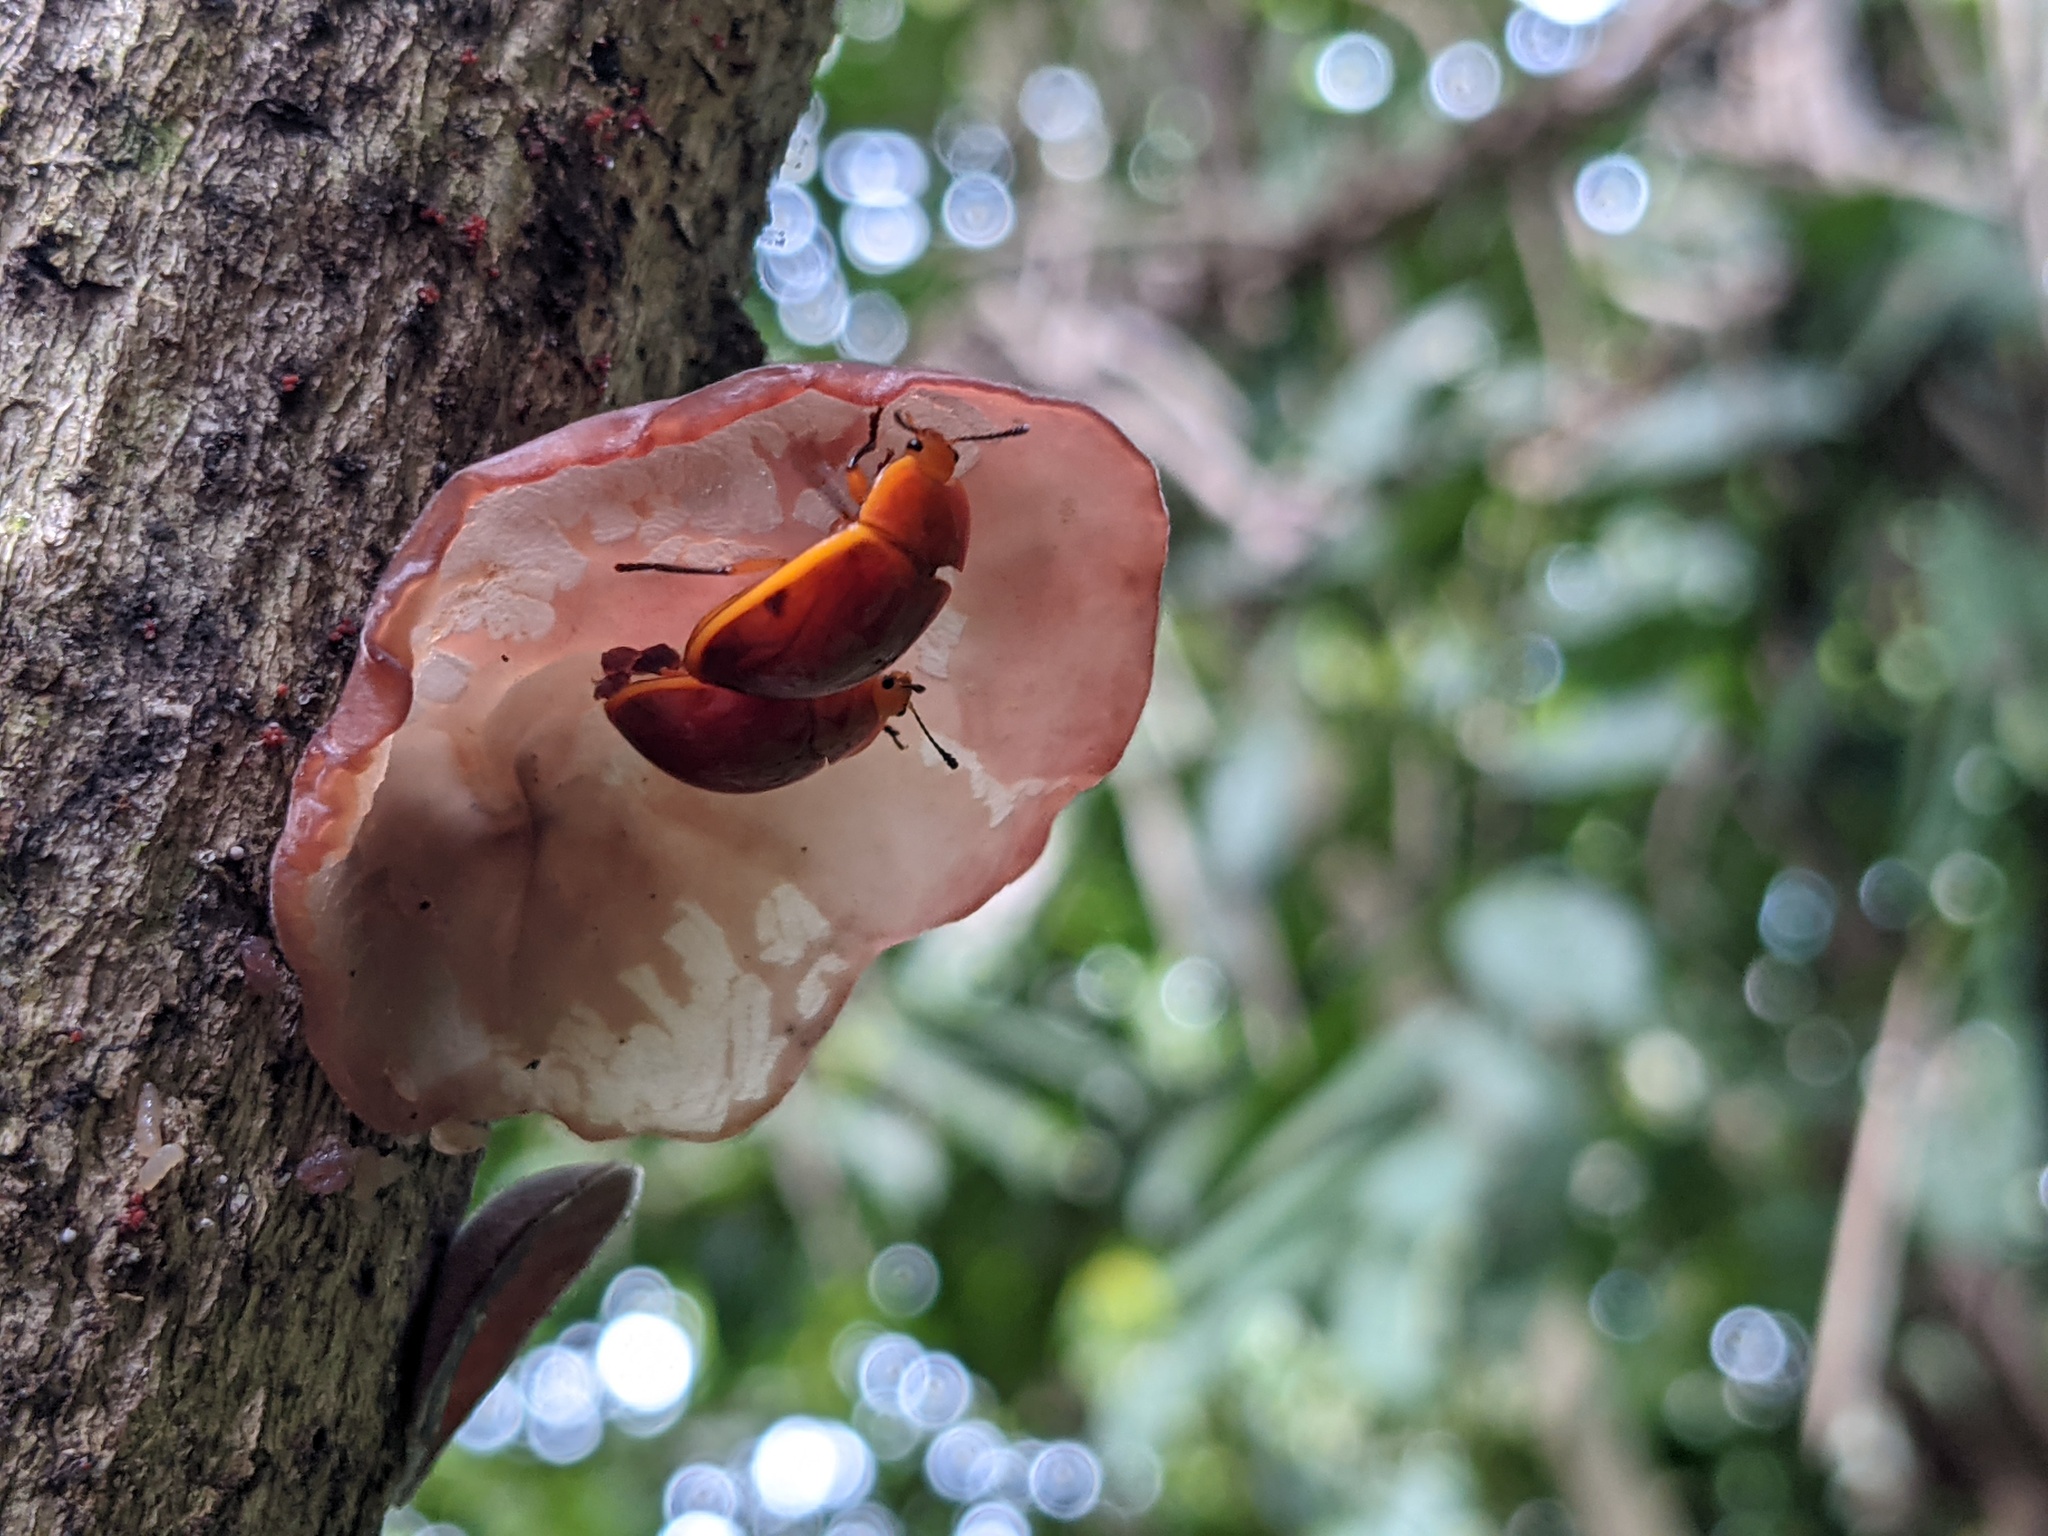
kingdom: Animalia
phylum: Arthropoda
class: Insecta
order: Coleoptera
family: Erotylidae
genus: Iphiclus
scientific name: Iphiclus
